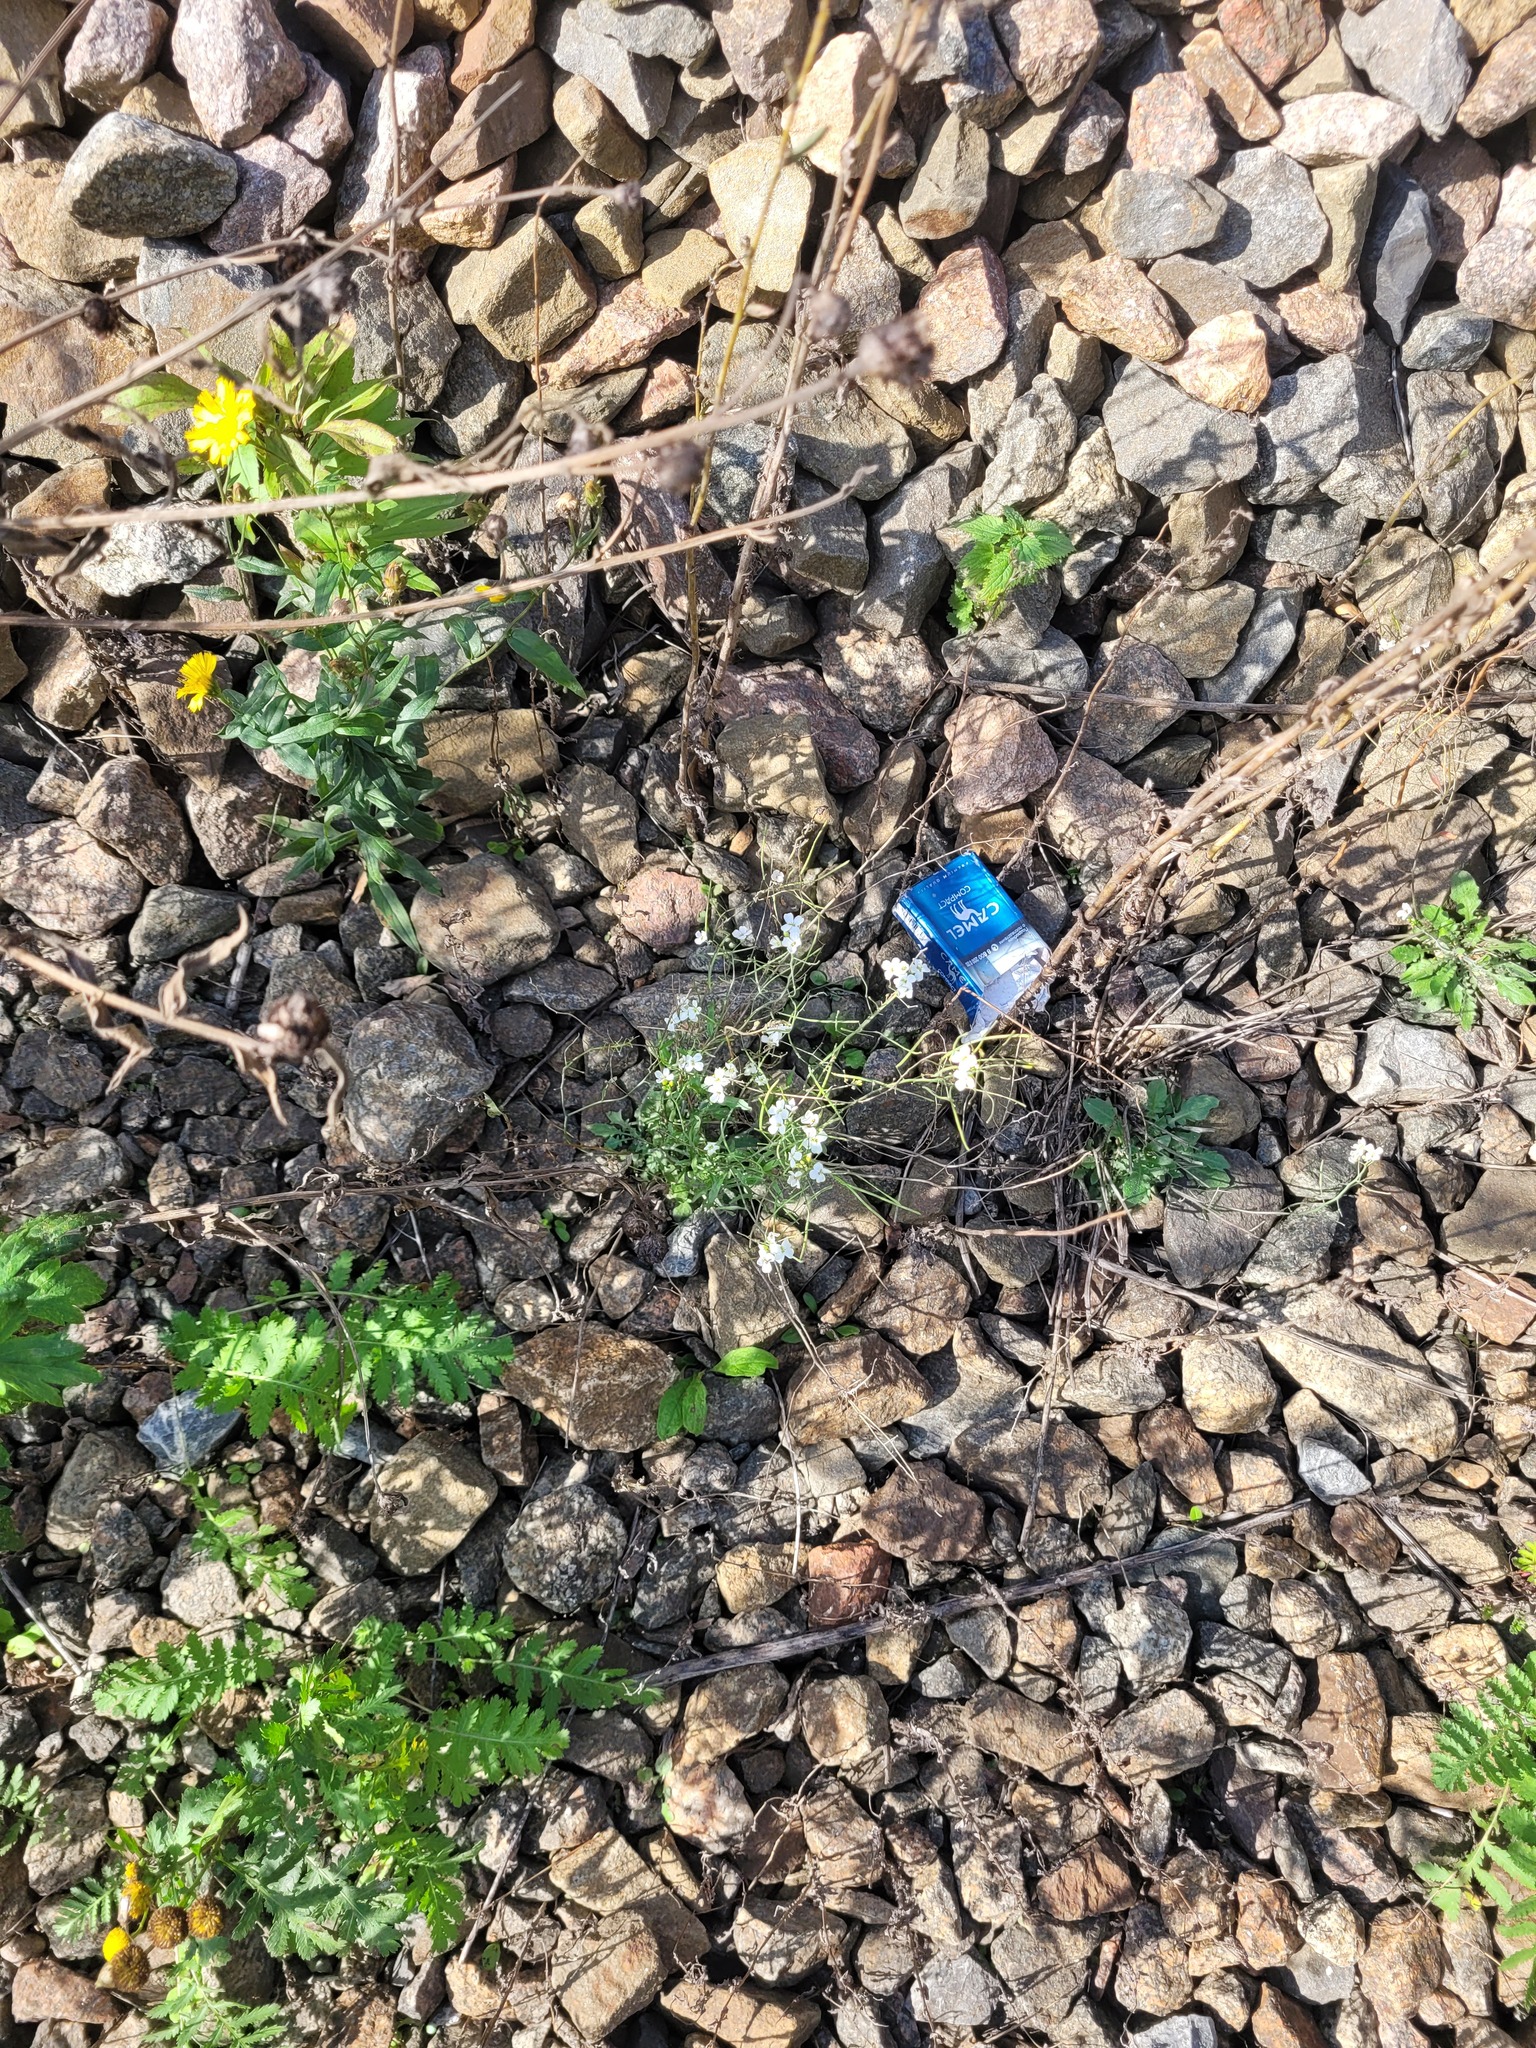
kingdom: Plantae
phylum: Tracheophyta
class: Magnoliopsida
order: Brassicales
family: Brassicaceae
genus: Arabidopsis
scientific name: Arabidopsis arenosa
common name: Sand rock-cress
